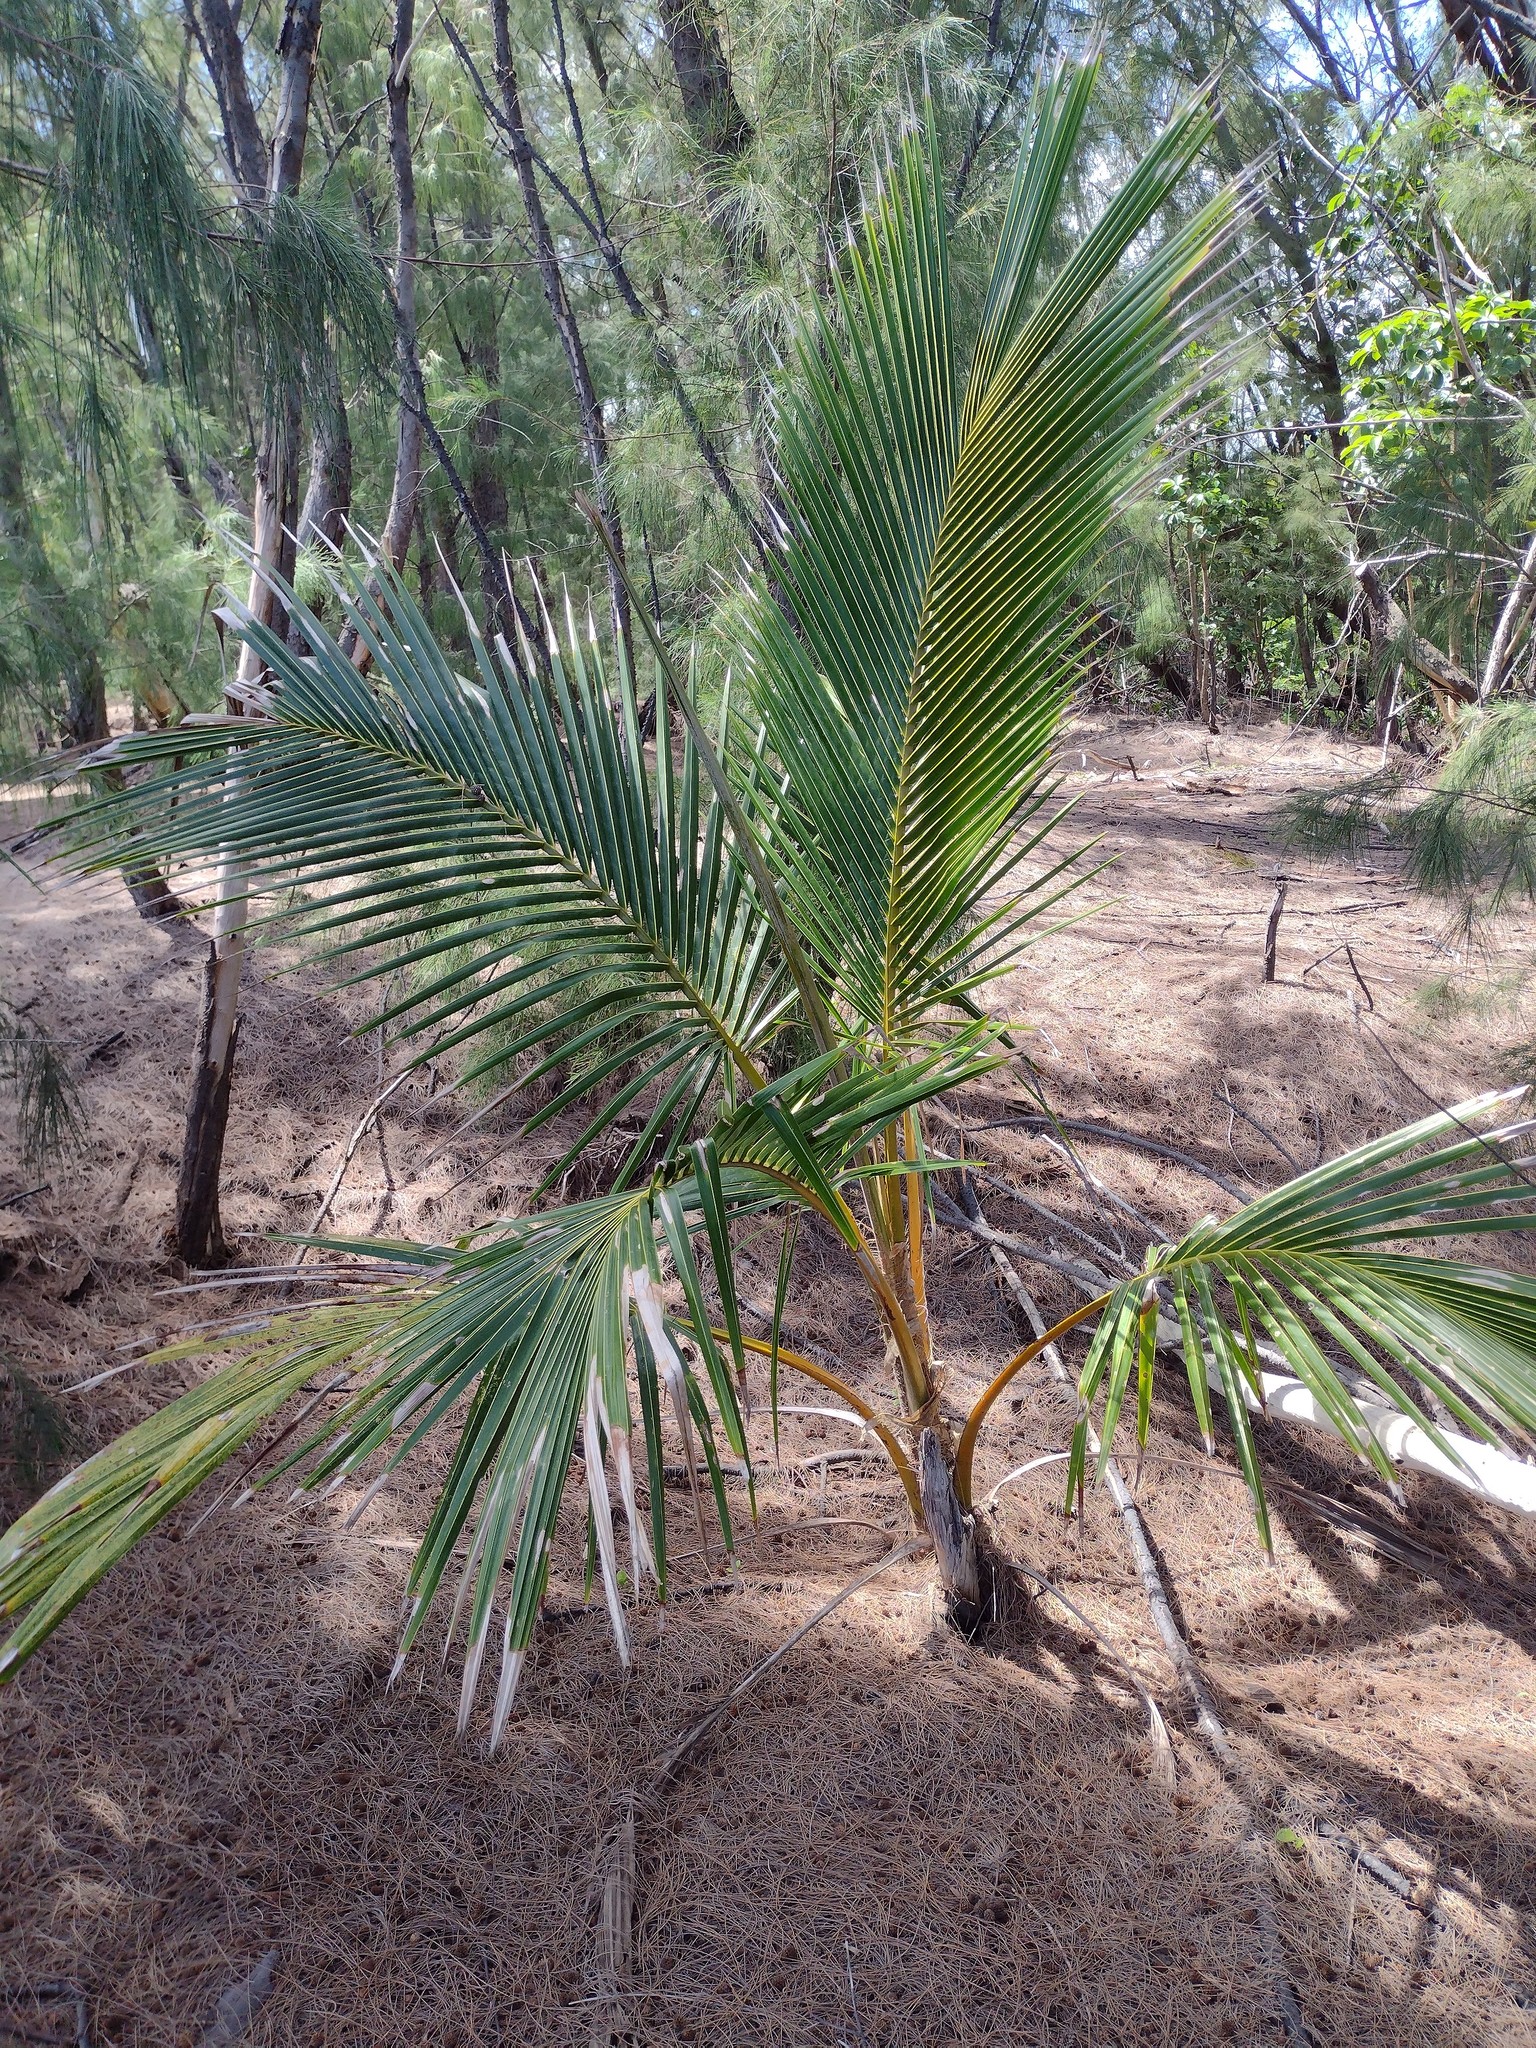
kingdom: Plantae
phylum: Tracheophyta
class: Liliopsida
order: Arecales
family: Arecaceae
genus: Cocos
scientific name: Cocos nucifera
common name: Coconut palm
